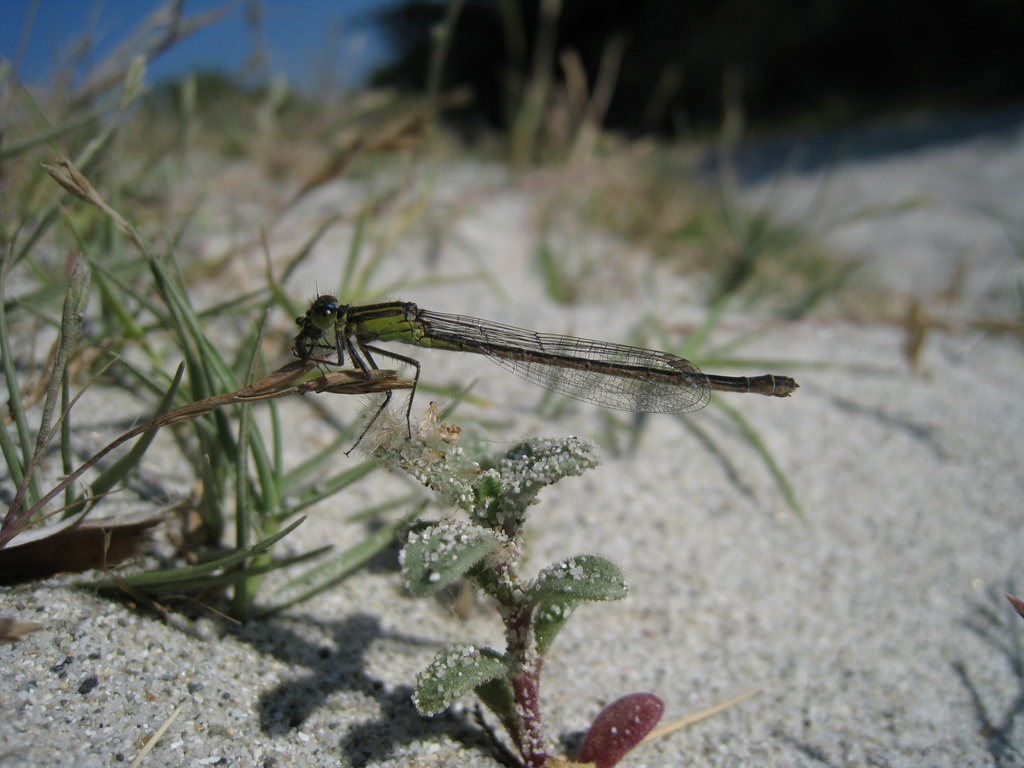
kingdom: Animalia
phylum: Arthropoda
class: Insecta
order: Odonata
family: Coenagrionidae
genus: Ischnura
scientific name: Ischnura genei
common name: Island bluetail
